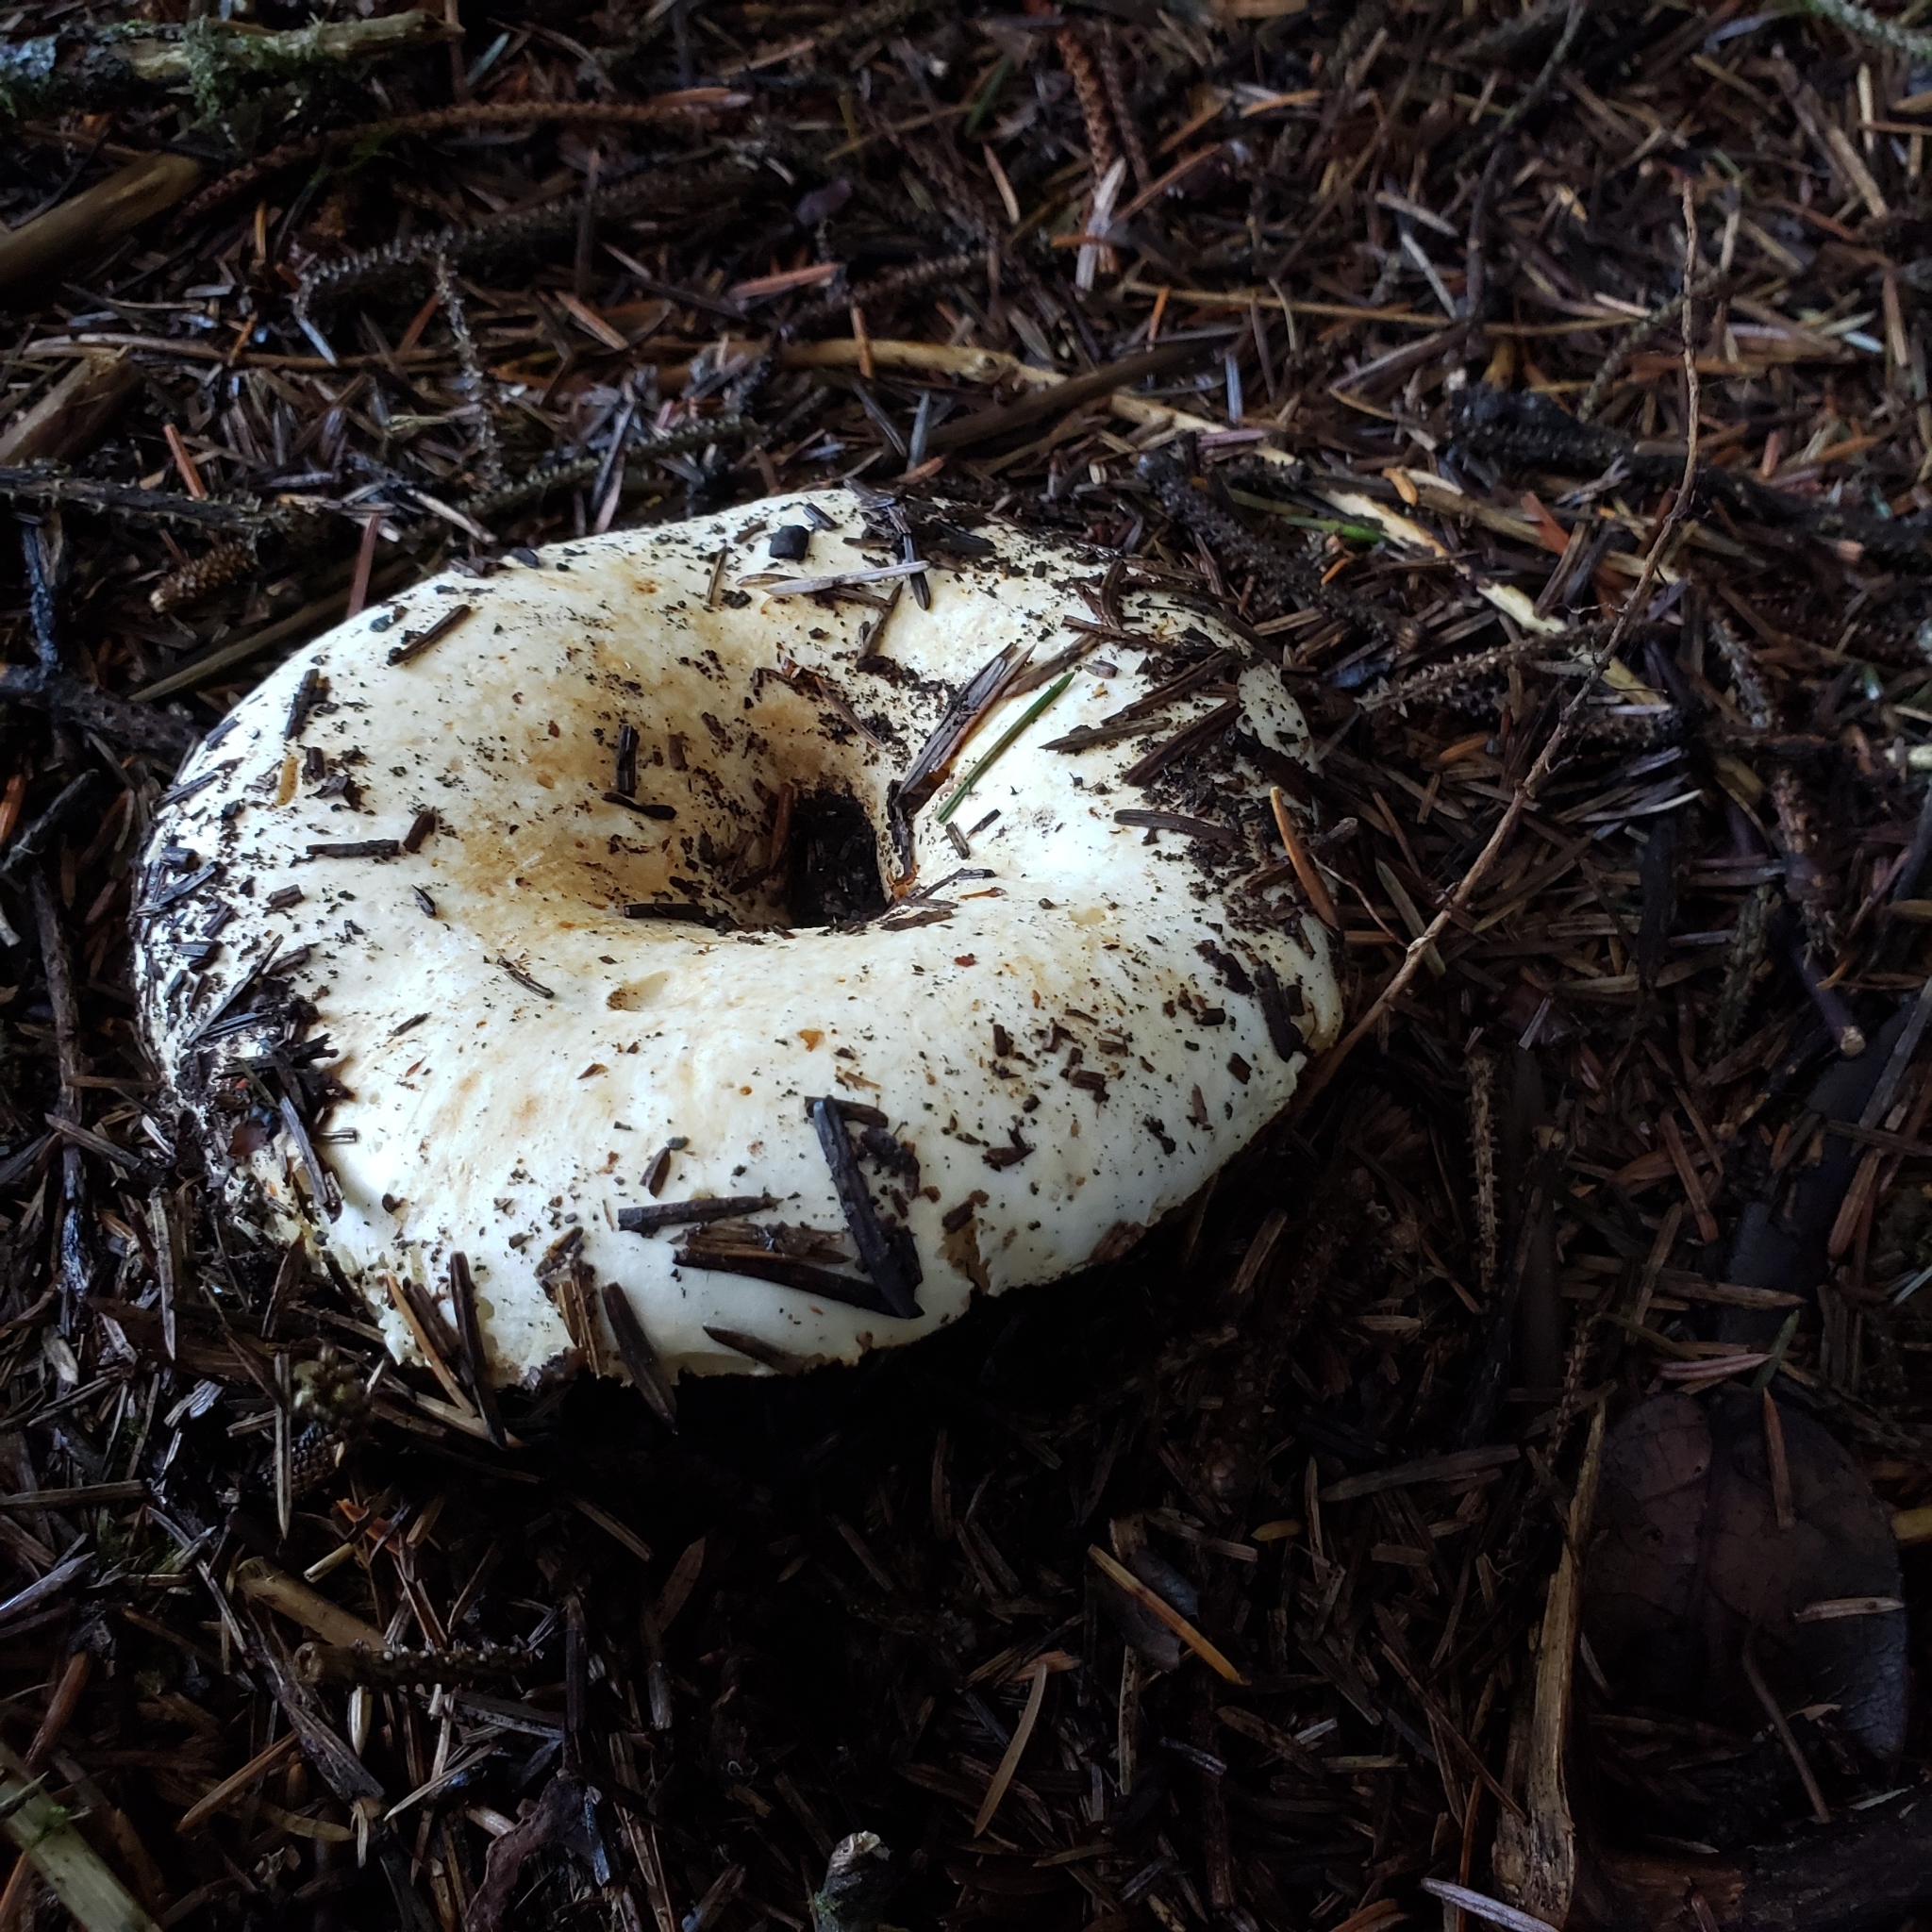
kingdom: Fungi
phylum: Basidiomycota
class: Agaricomycetes
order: Russulales
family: Russulaceae
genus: Russula
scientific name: Russula brevipes
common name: Short-stemmed russula
